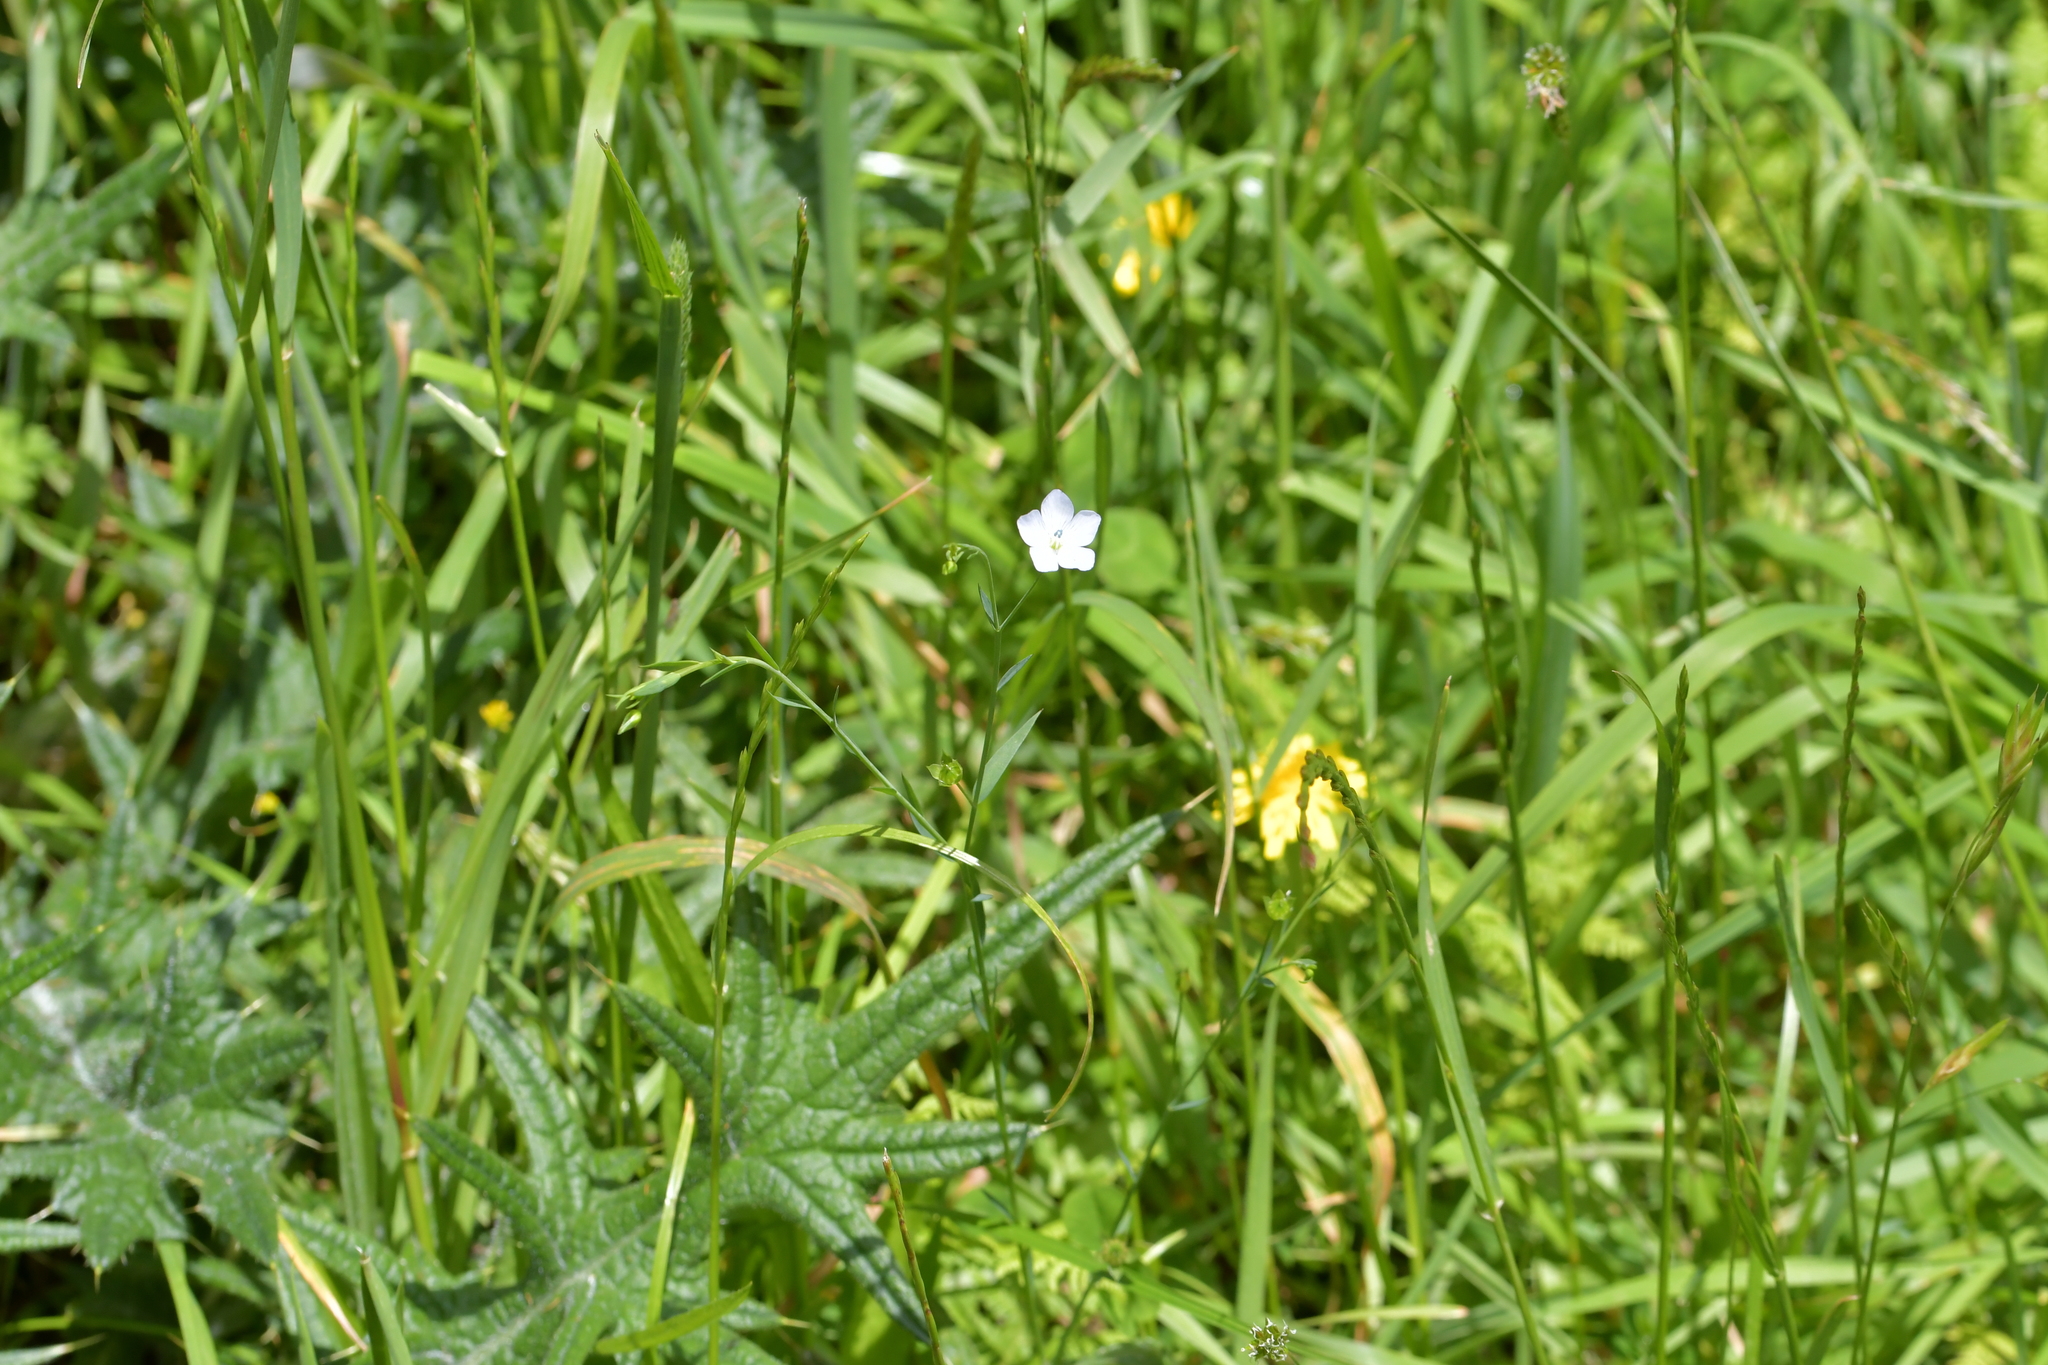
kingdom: Plantae
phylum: Tracheophyta
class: Magnoliopsida
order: Malpighiales
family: Linaceae
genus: Linum
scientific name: Linum bienne
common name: Pale flax
